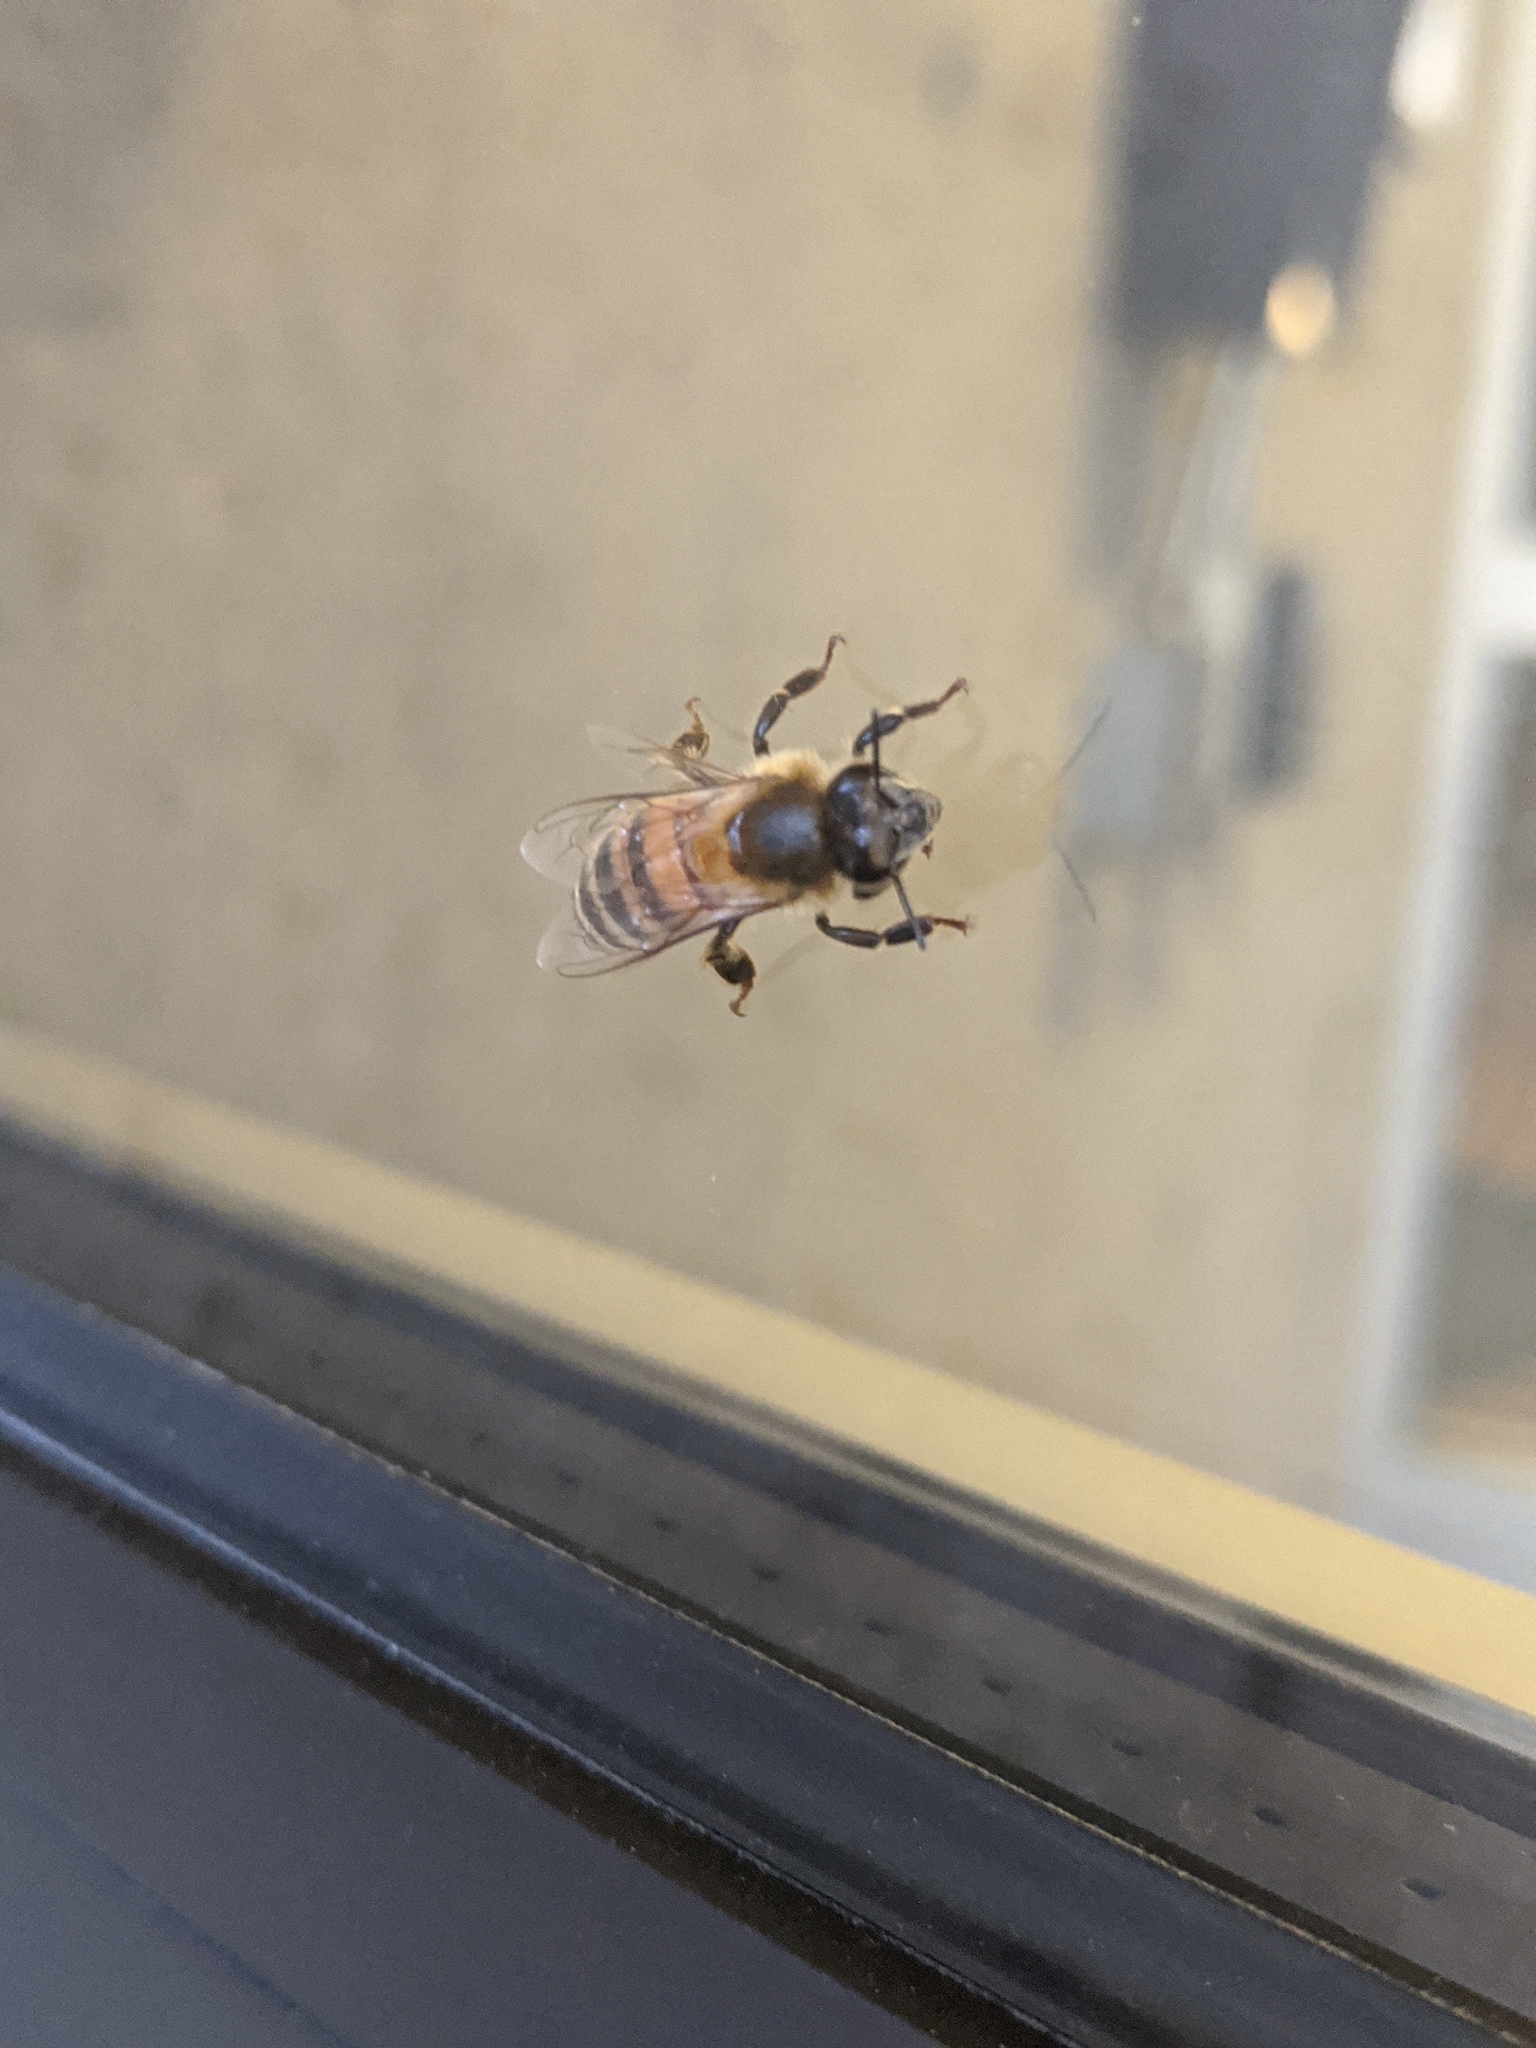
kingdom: Animalia
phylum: Arthropoda
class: Insecta
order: Hymenoptera
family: Apidae
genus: Apis
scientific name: Apis mellifera
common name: Honey bee
